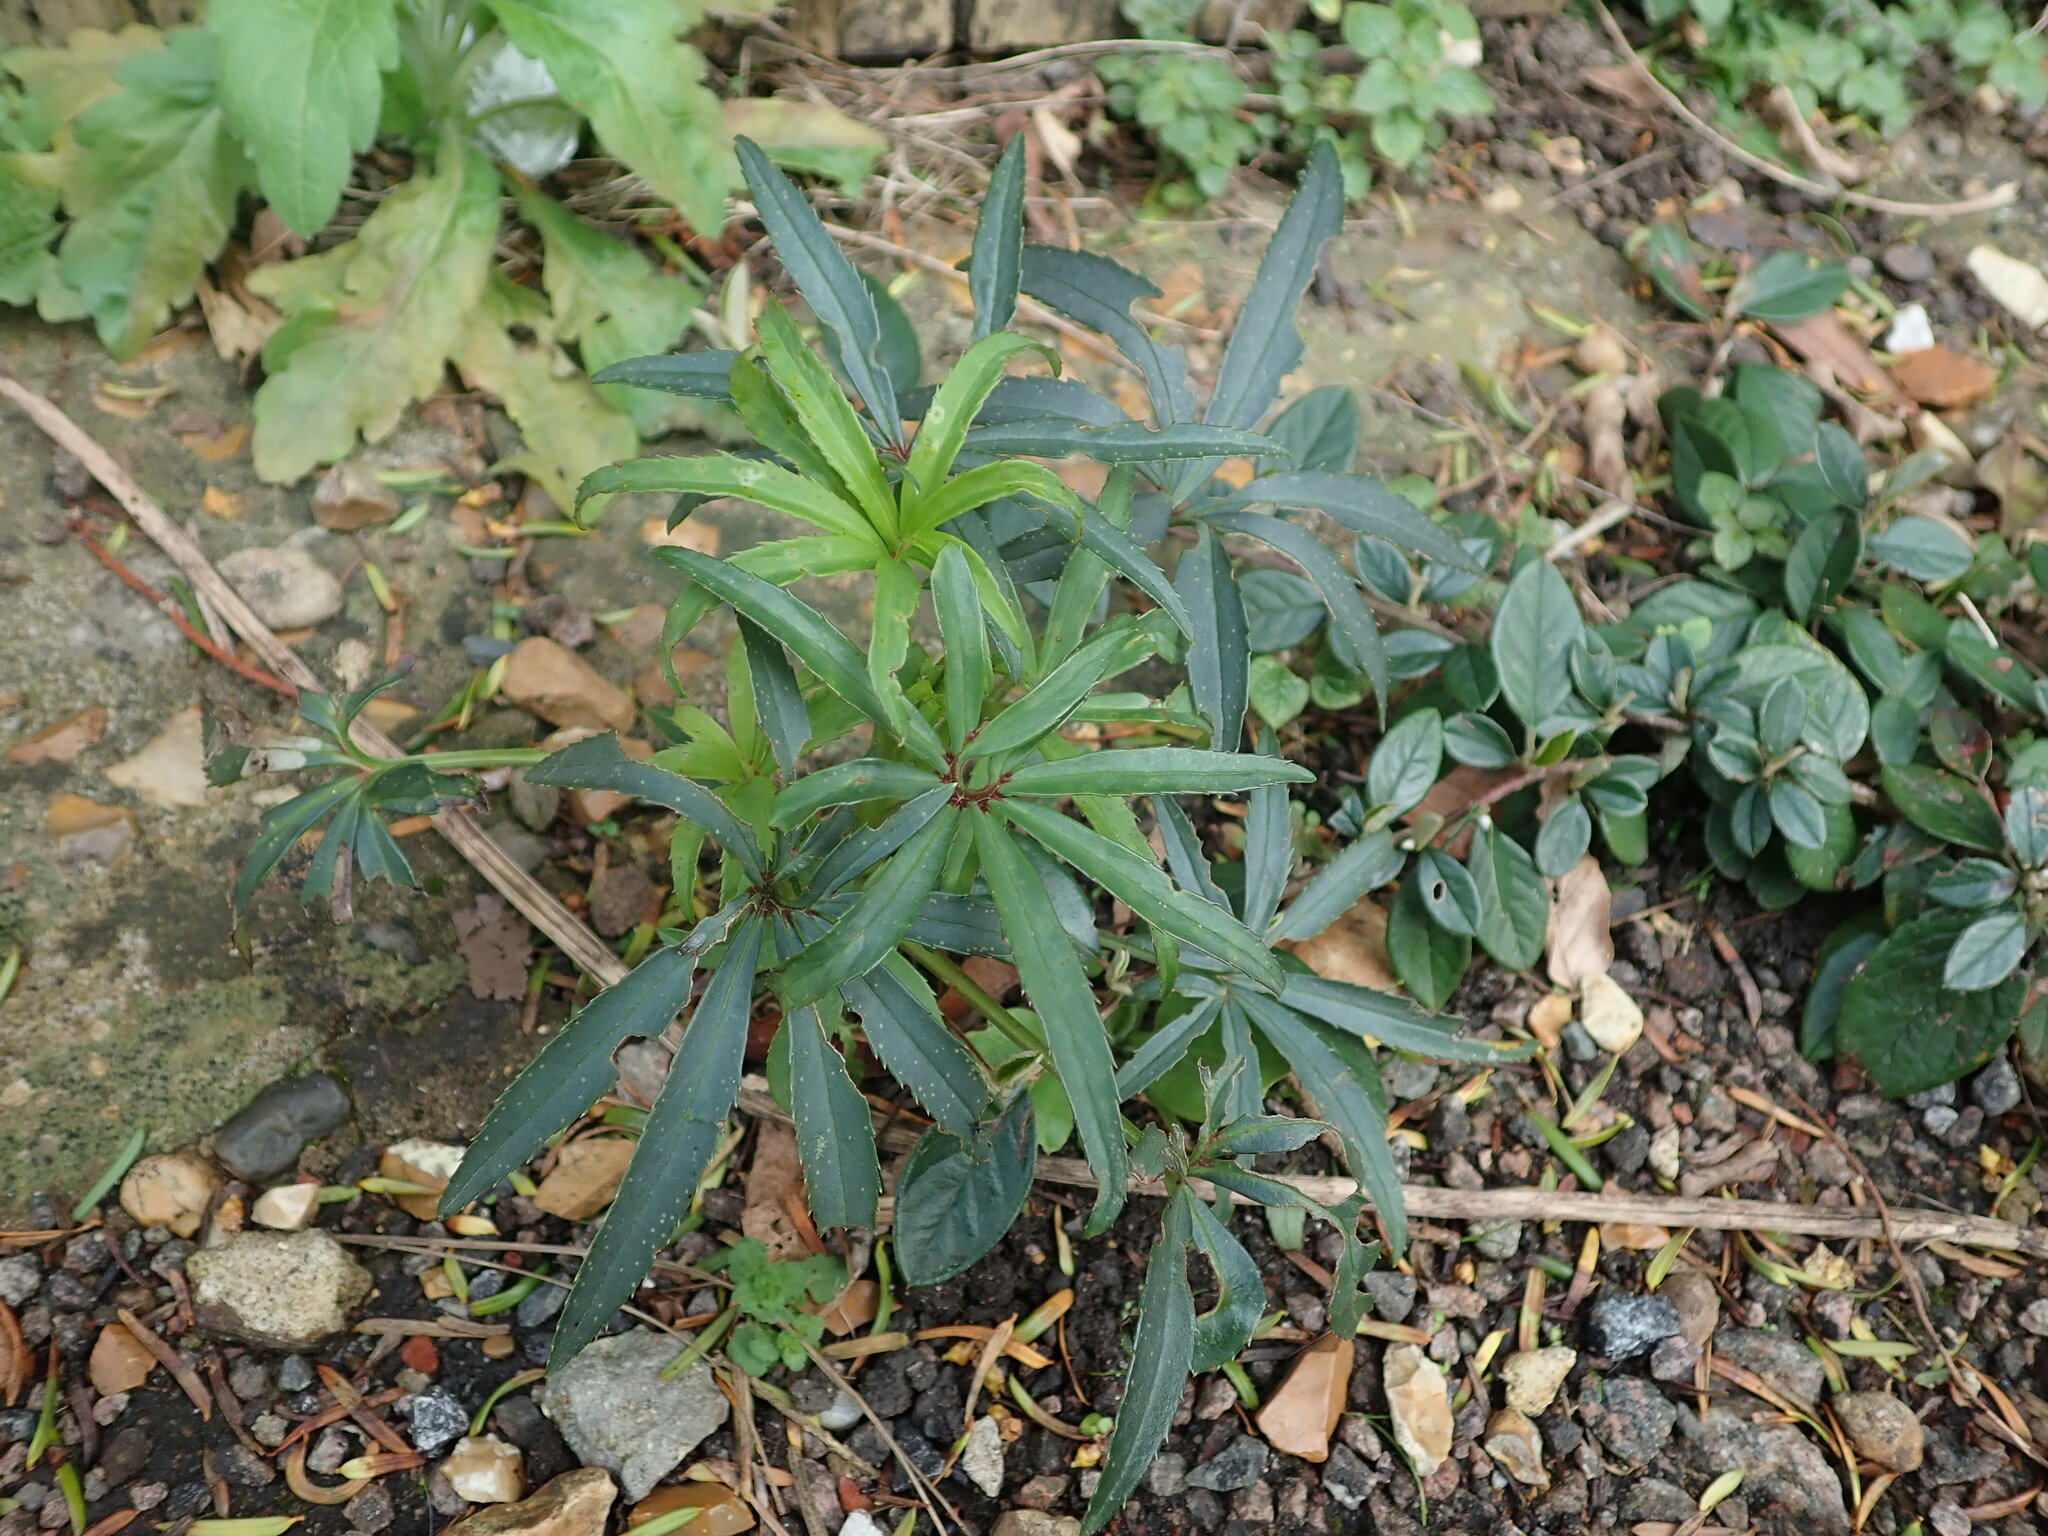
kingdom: Plantae
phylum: Tracheophyta
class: Magnoliopsida
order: Ranunculales
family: Ranunculaceae
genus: Helleborus
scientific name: Helleborus foetidus
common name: Stinking hellebore
